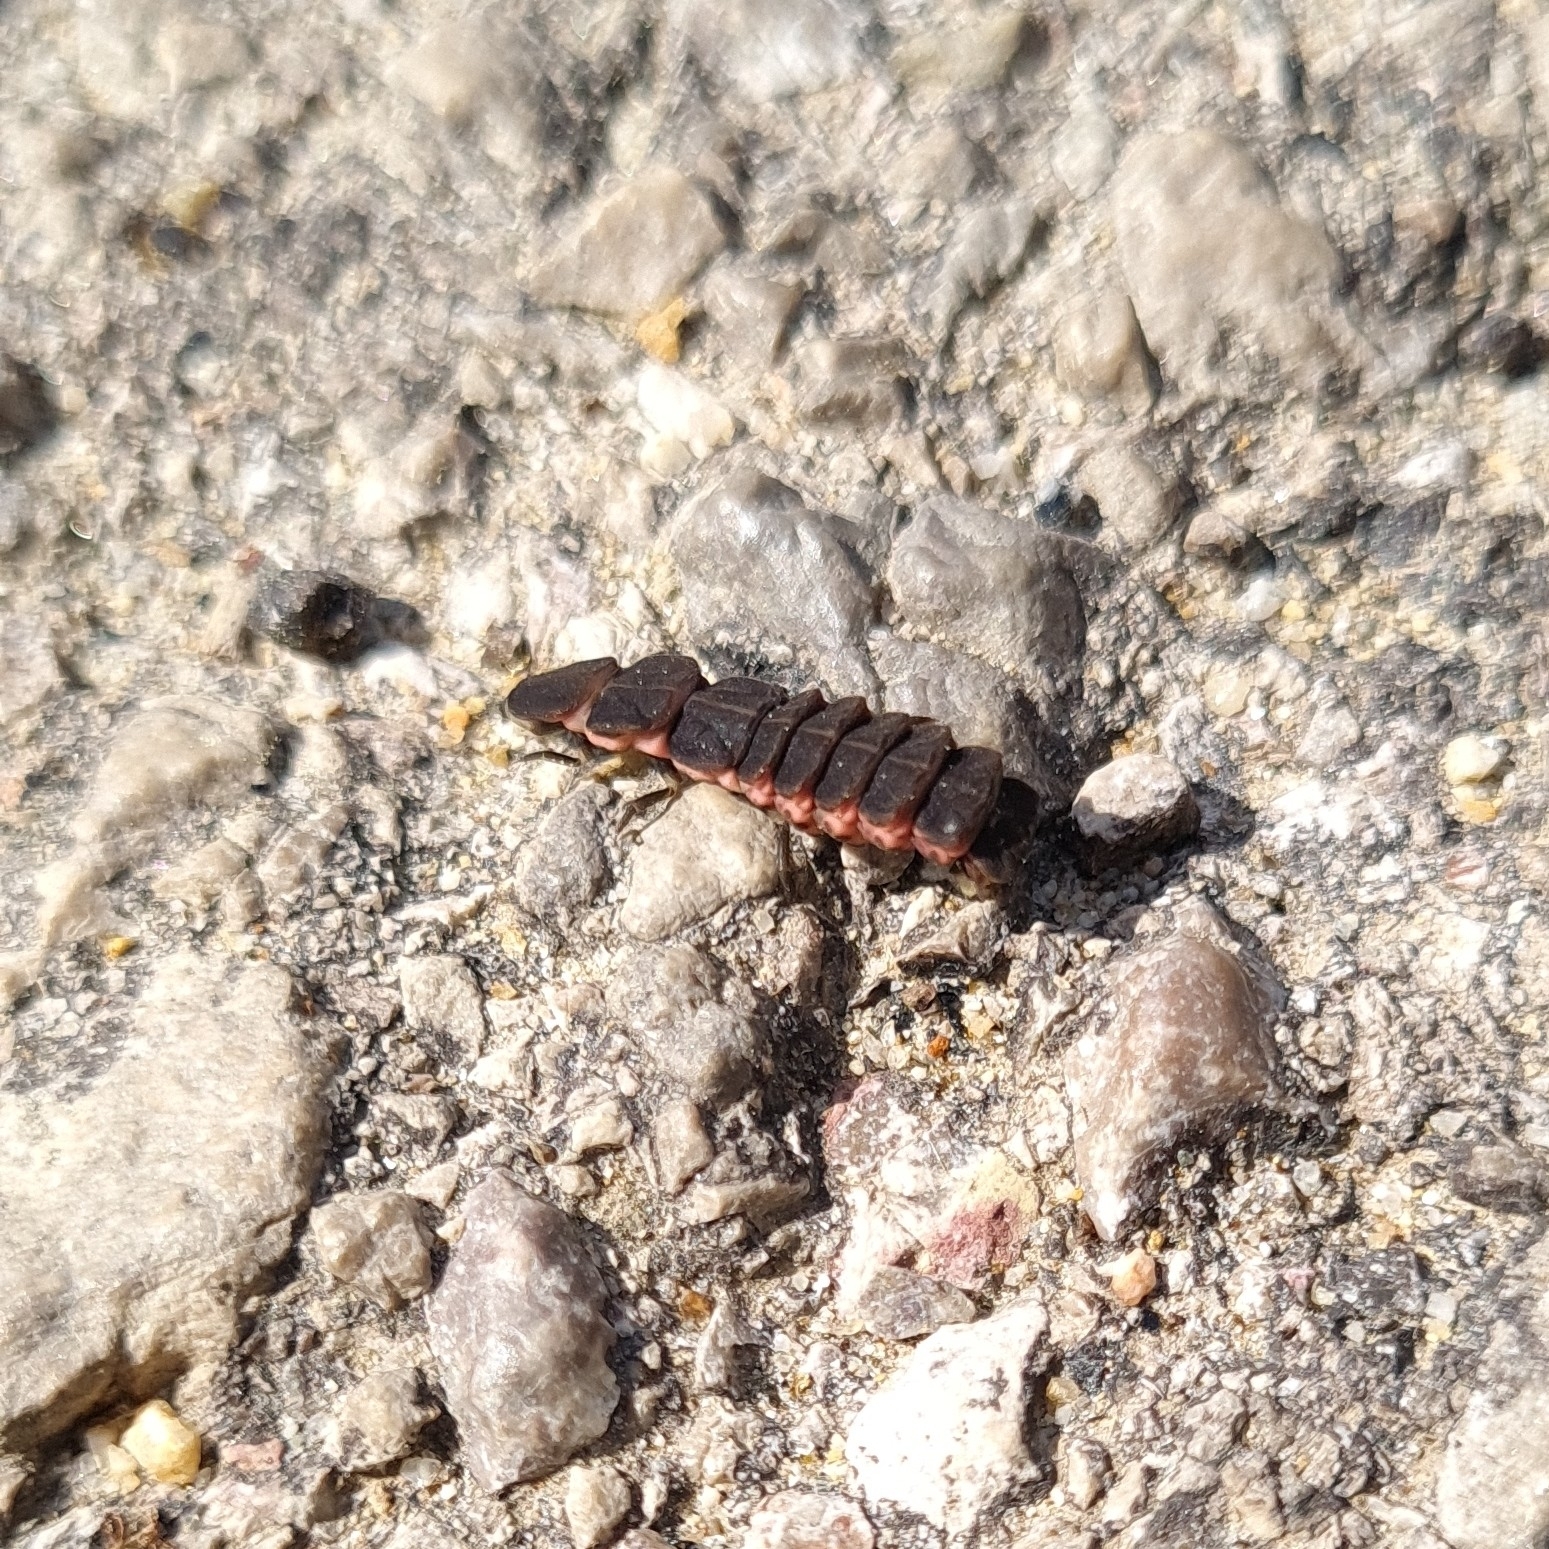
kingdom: Animalia
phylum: Arthropoda
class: Insecta
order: Coleoptera
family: Lampyridae
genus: Nyctophila
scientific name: Nyctophila reichii
